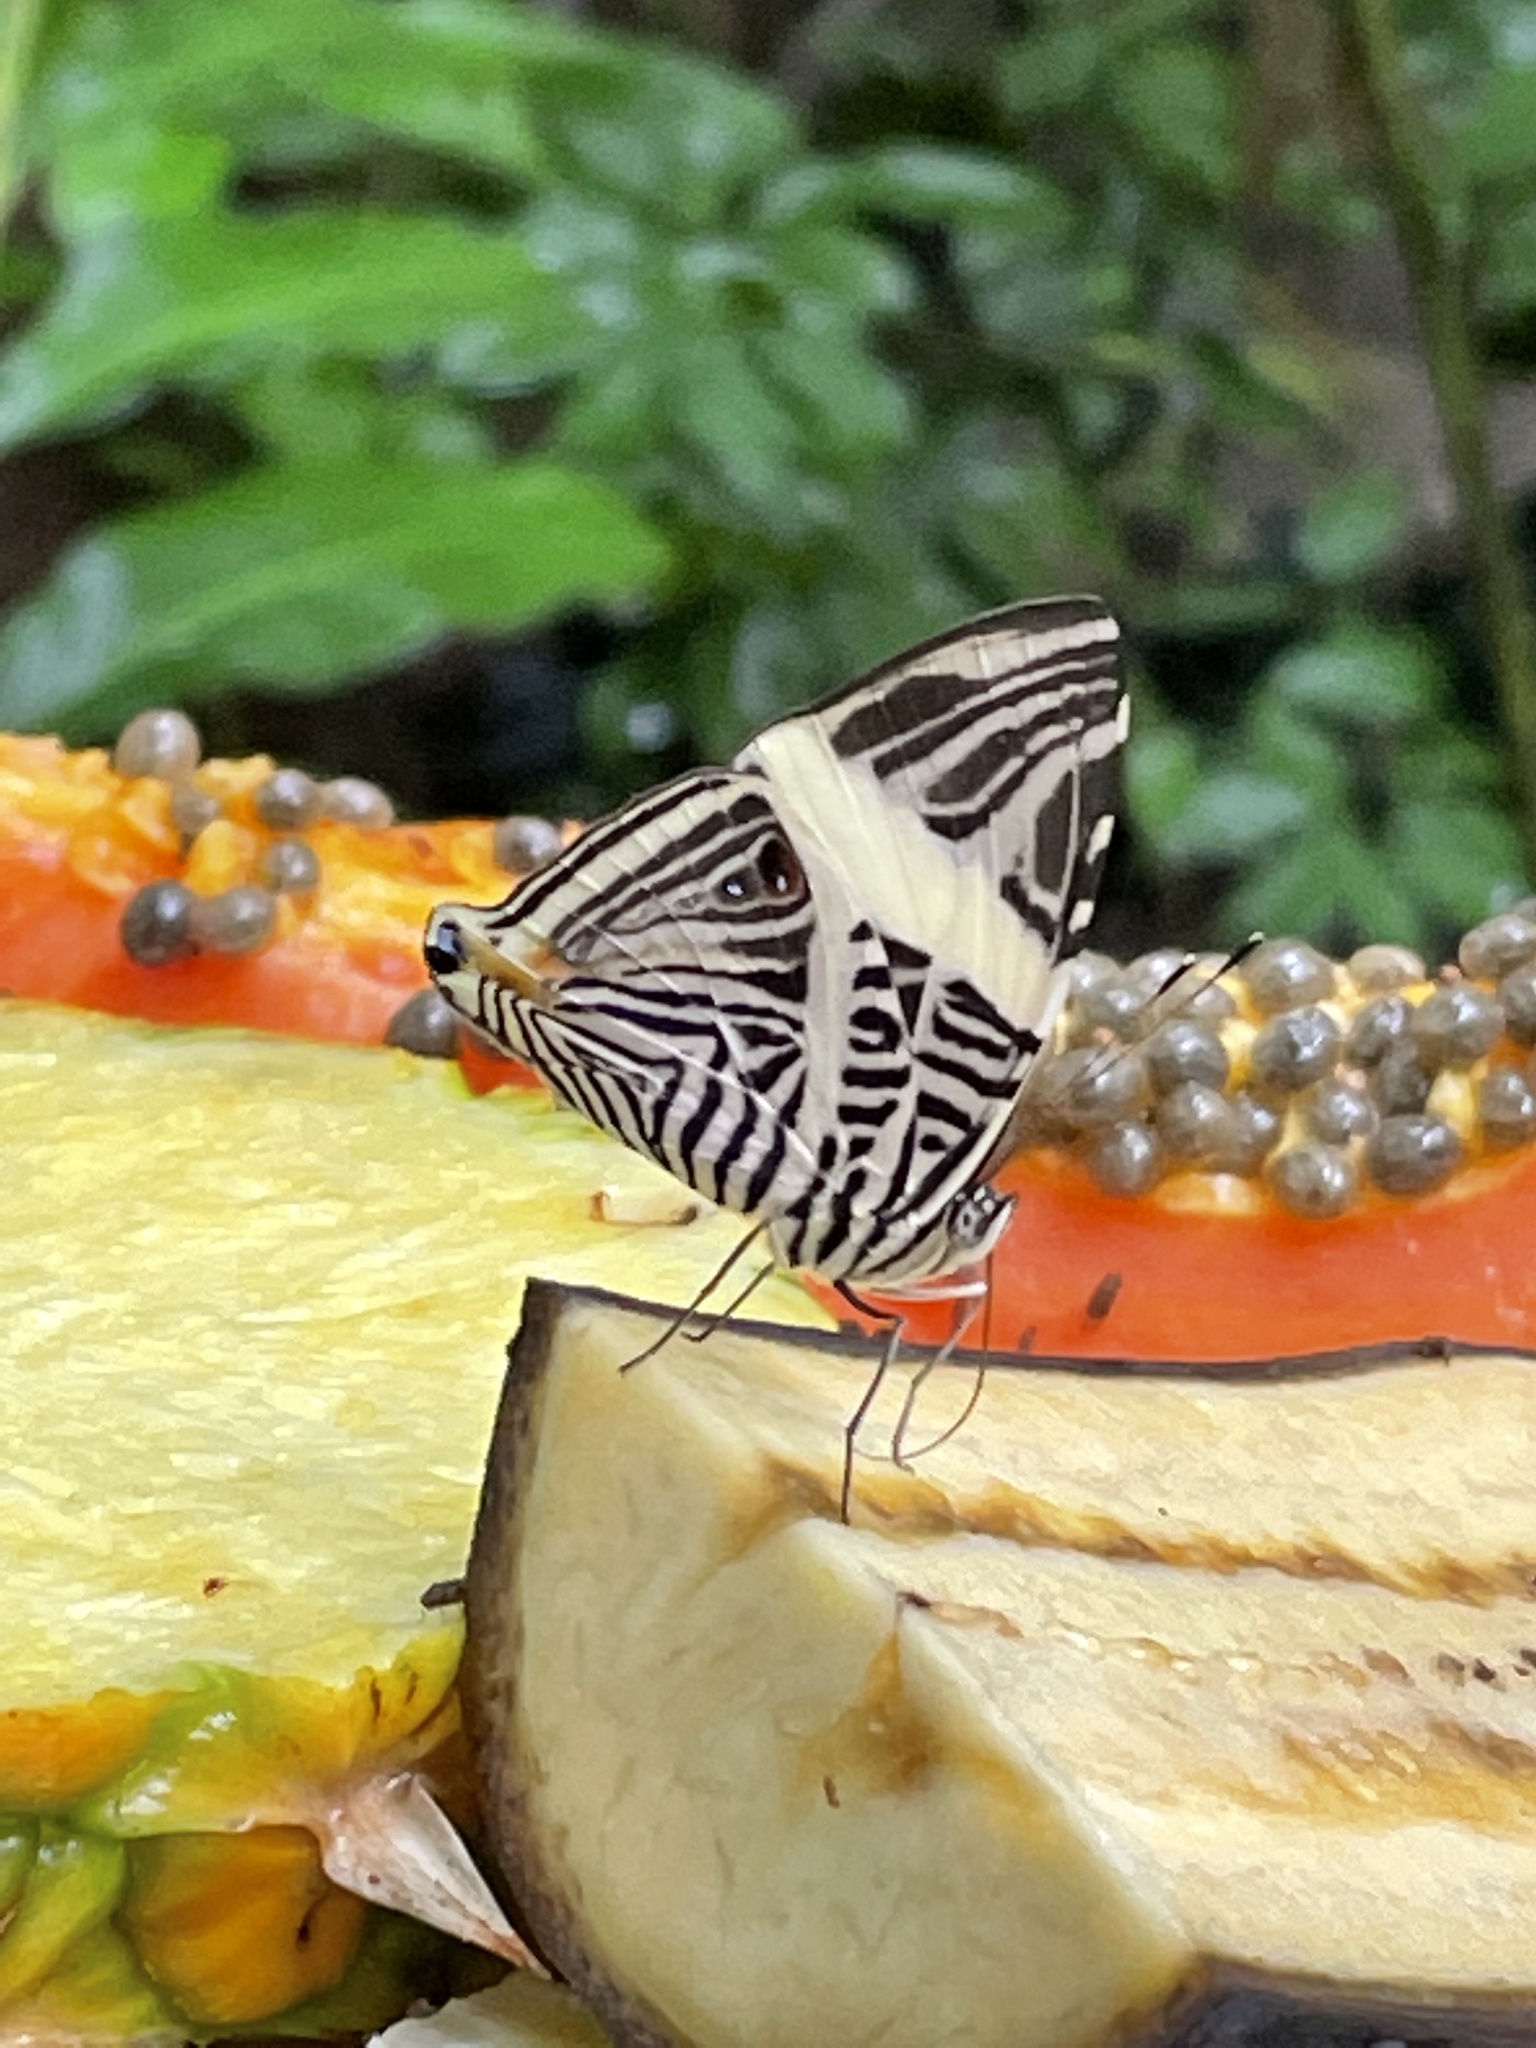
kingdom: Animalia
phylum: Arthropoda
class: Insecta
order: Lepidoptera
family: Nymphalidae
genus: Colobura
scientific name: Colobura dirce
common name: Dirce beauty
